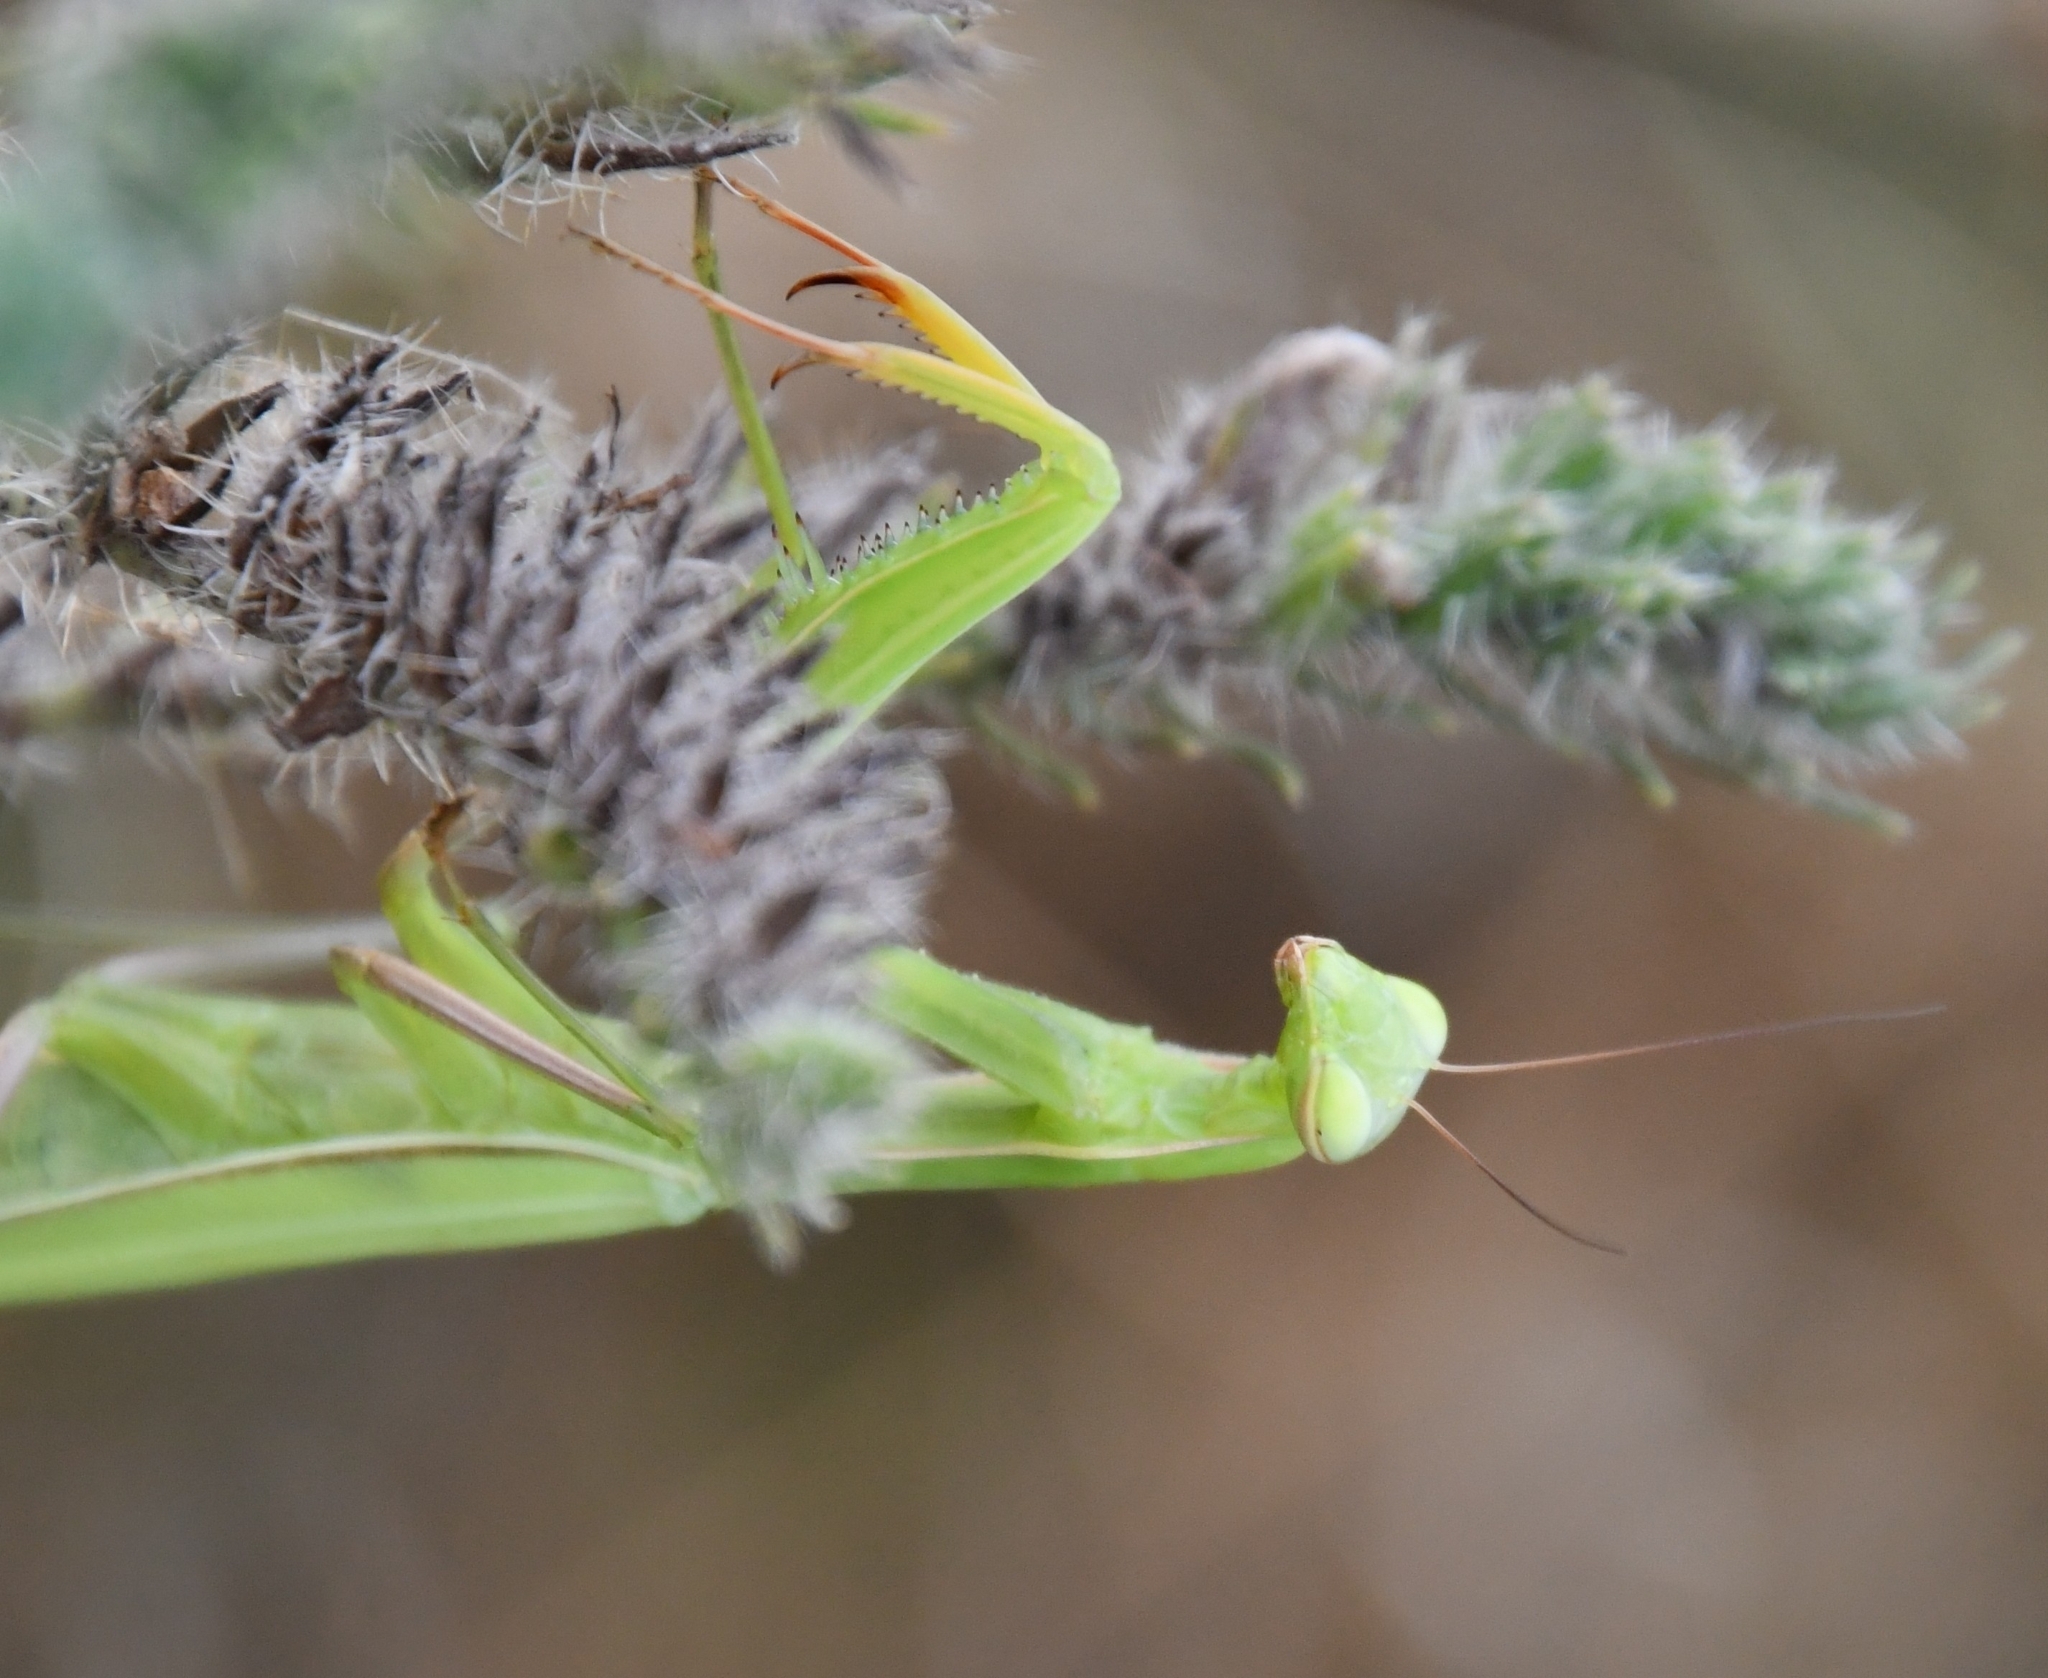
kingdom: Animalia
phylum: Arthropoda
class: Insecta
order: Mantodea
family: Mantidae
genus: Mantis
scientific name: Mantis religiosa
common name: Praying mantis
